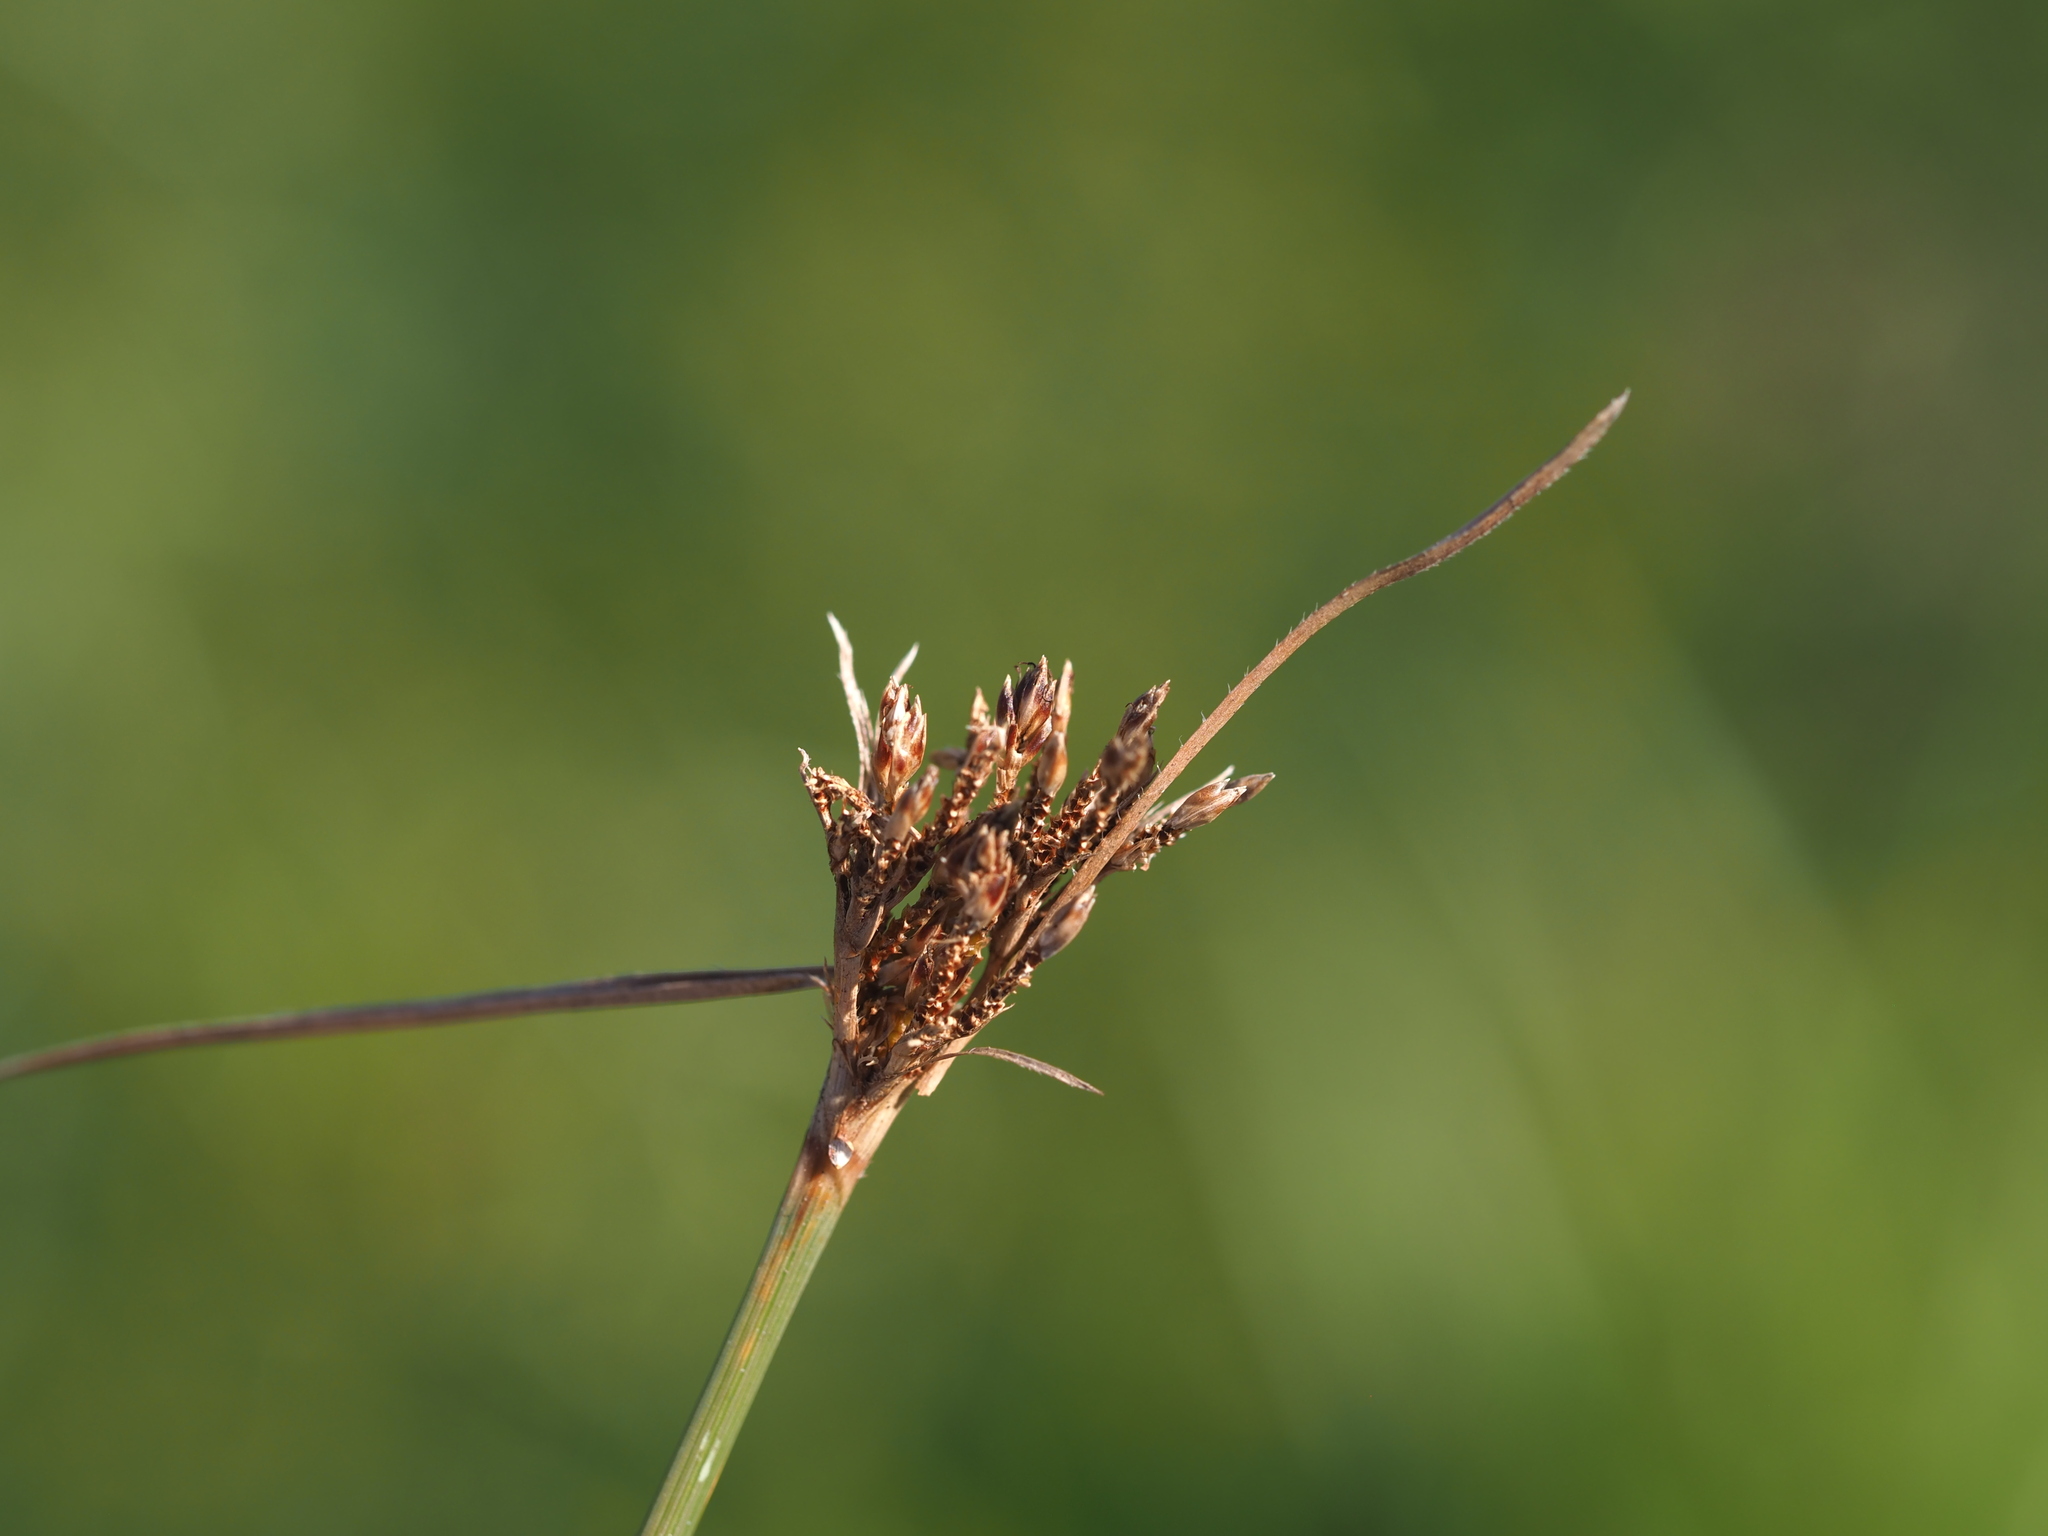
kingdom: Plantae
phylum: Tracheophyta
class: Liliopsida
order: Poales
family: Cyperaceae
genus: Fimbristylis
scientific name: Fimbristylis dichotoma
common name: Forked fimbry
